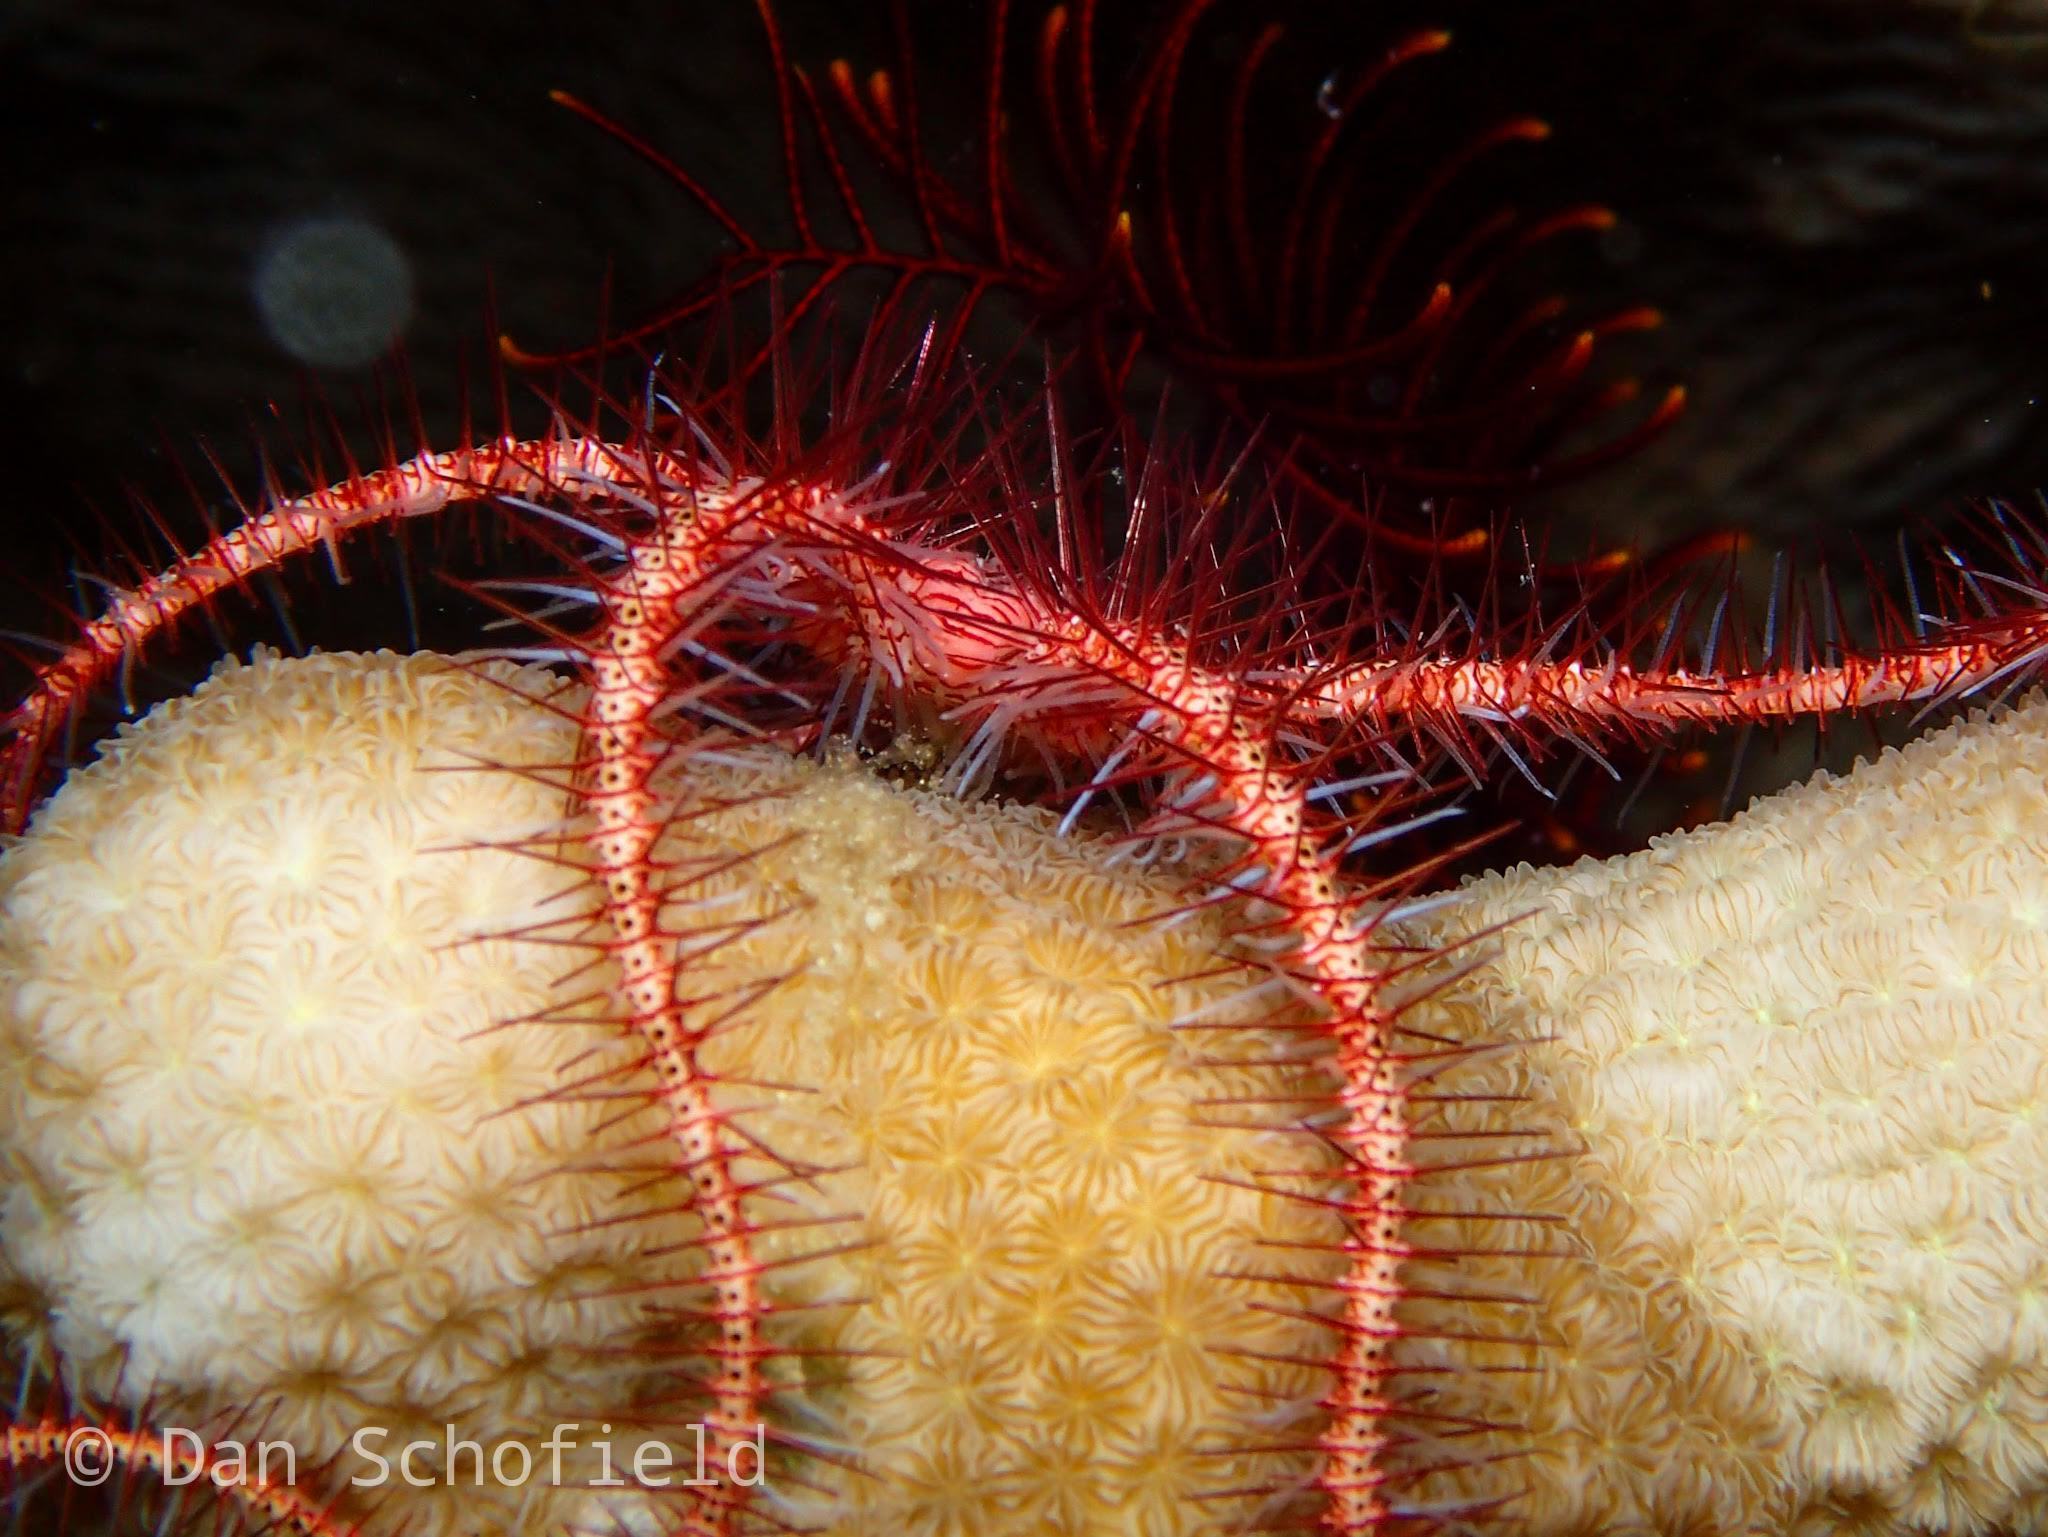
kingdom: Animalia
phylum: Echinodermata
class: Ophiuroidea
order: Amphilepidida
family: Ophiotrichidae
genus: Ophiothrix
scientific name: Ophiothrix purpurea
